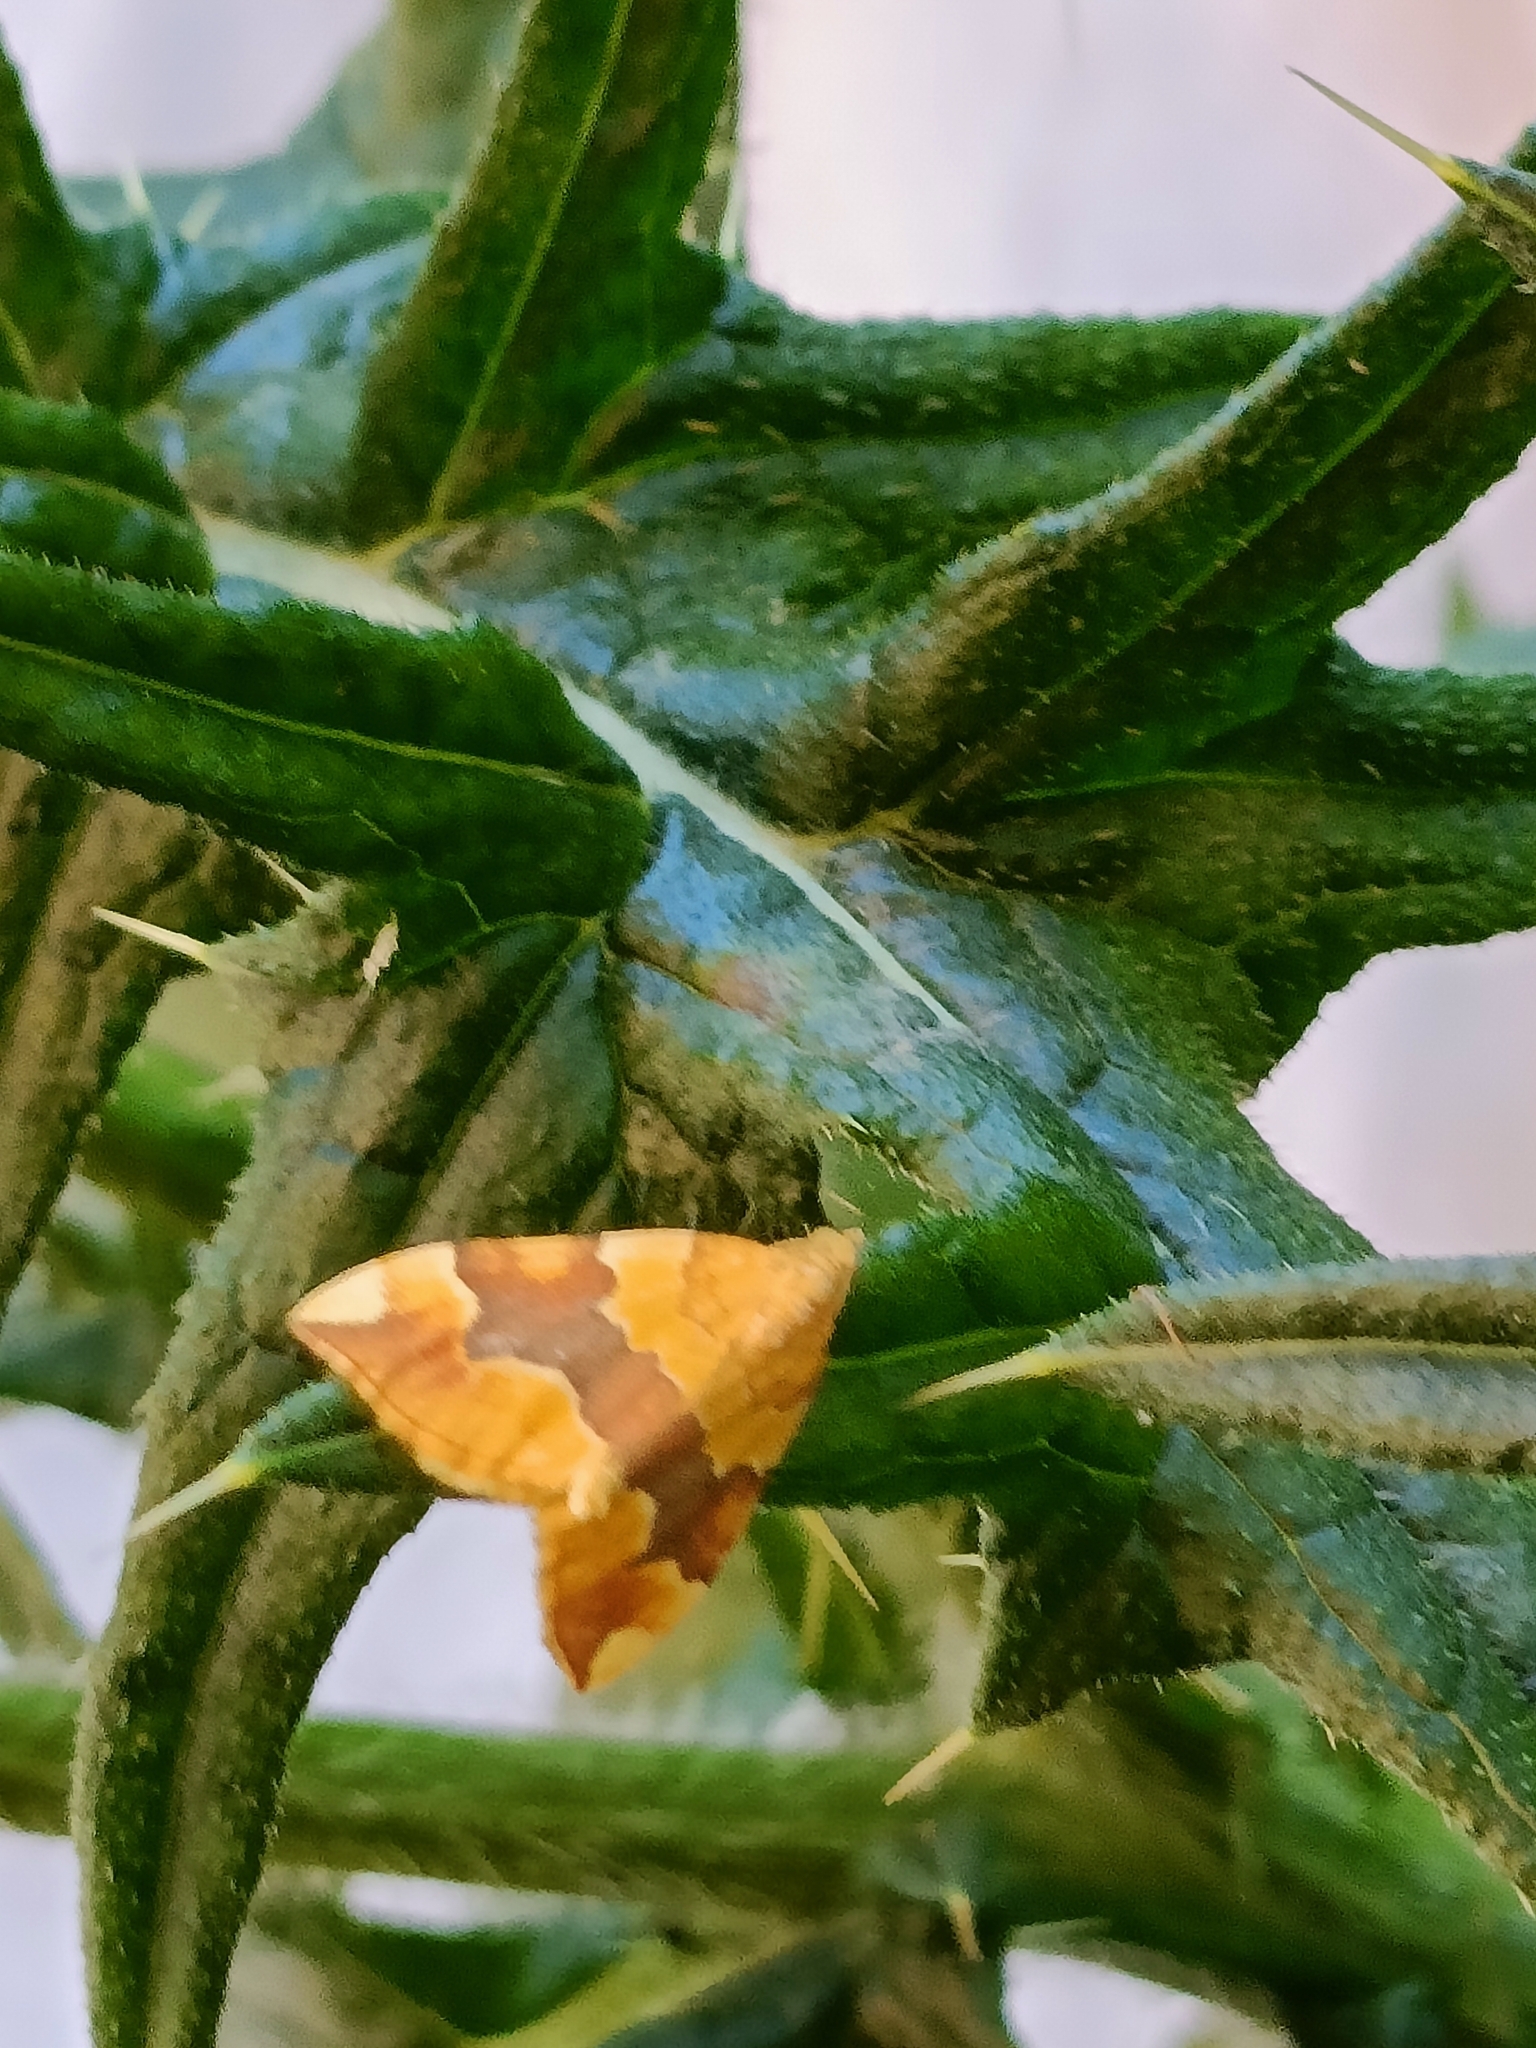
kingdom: Animalia
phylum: Arthropoda
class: Insecta
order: Lepidoptera
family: Geometridae
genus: Cidaria
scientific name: Cidaria fulvata
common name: Barred yellow
